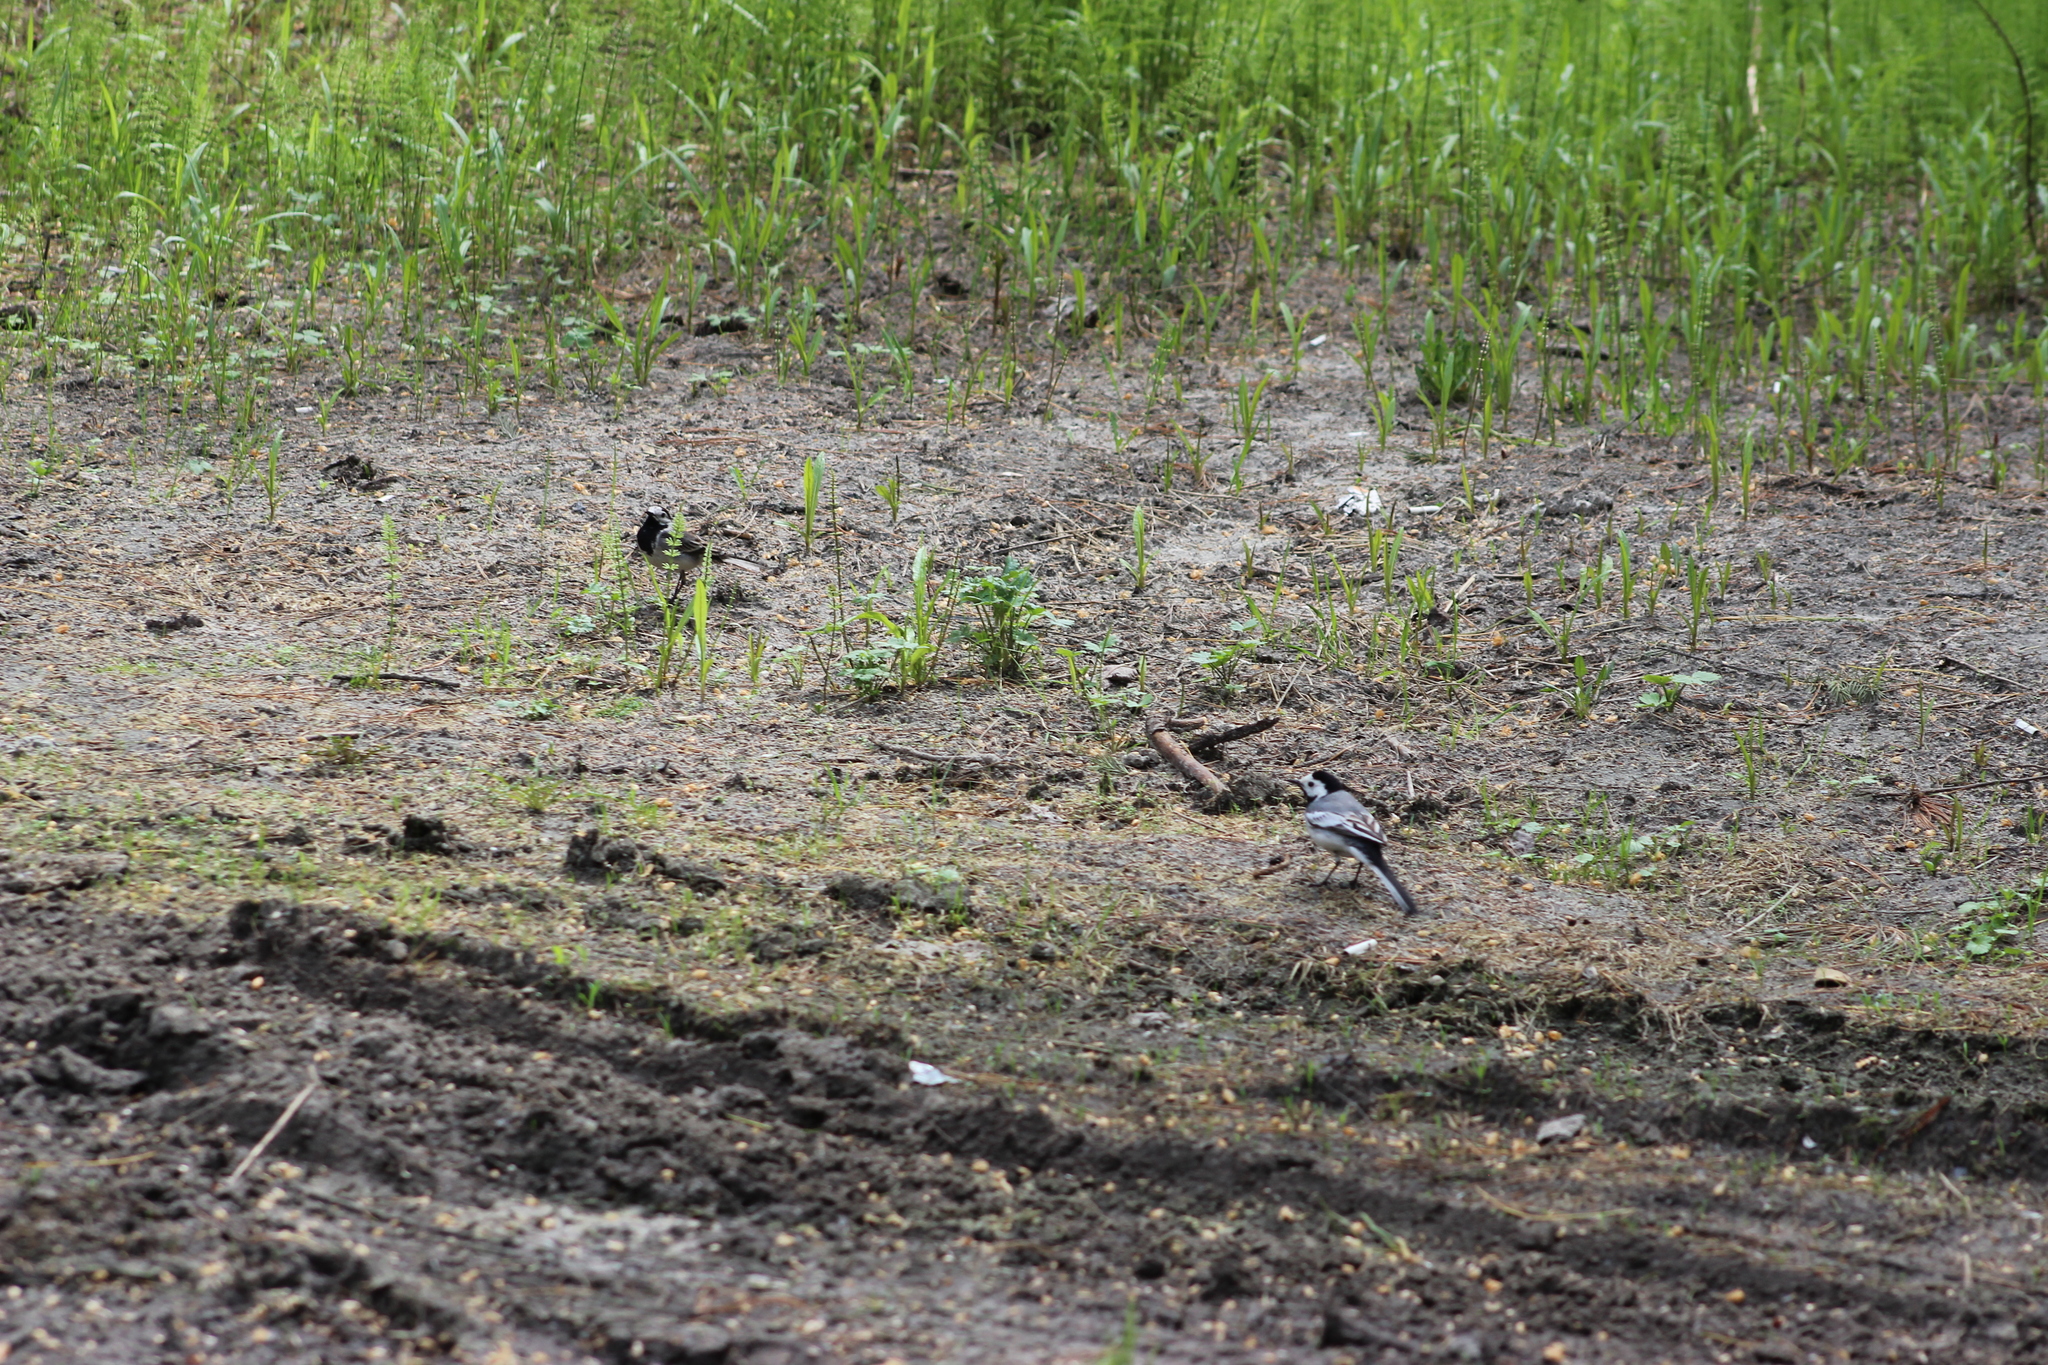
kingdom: Animalia
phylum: Chordata
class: Aves
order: Passeriformes
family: Motacillidae
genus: Motacilla
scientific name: Motacilla alba
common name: White wagtail
